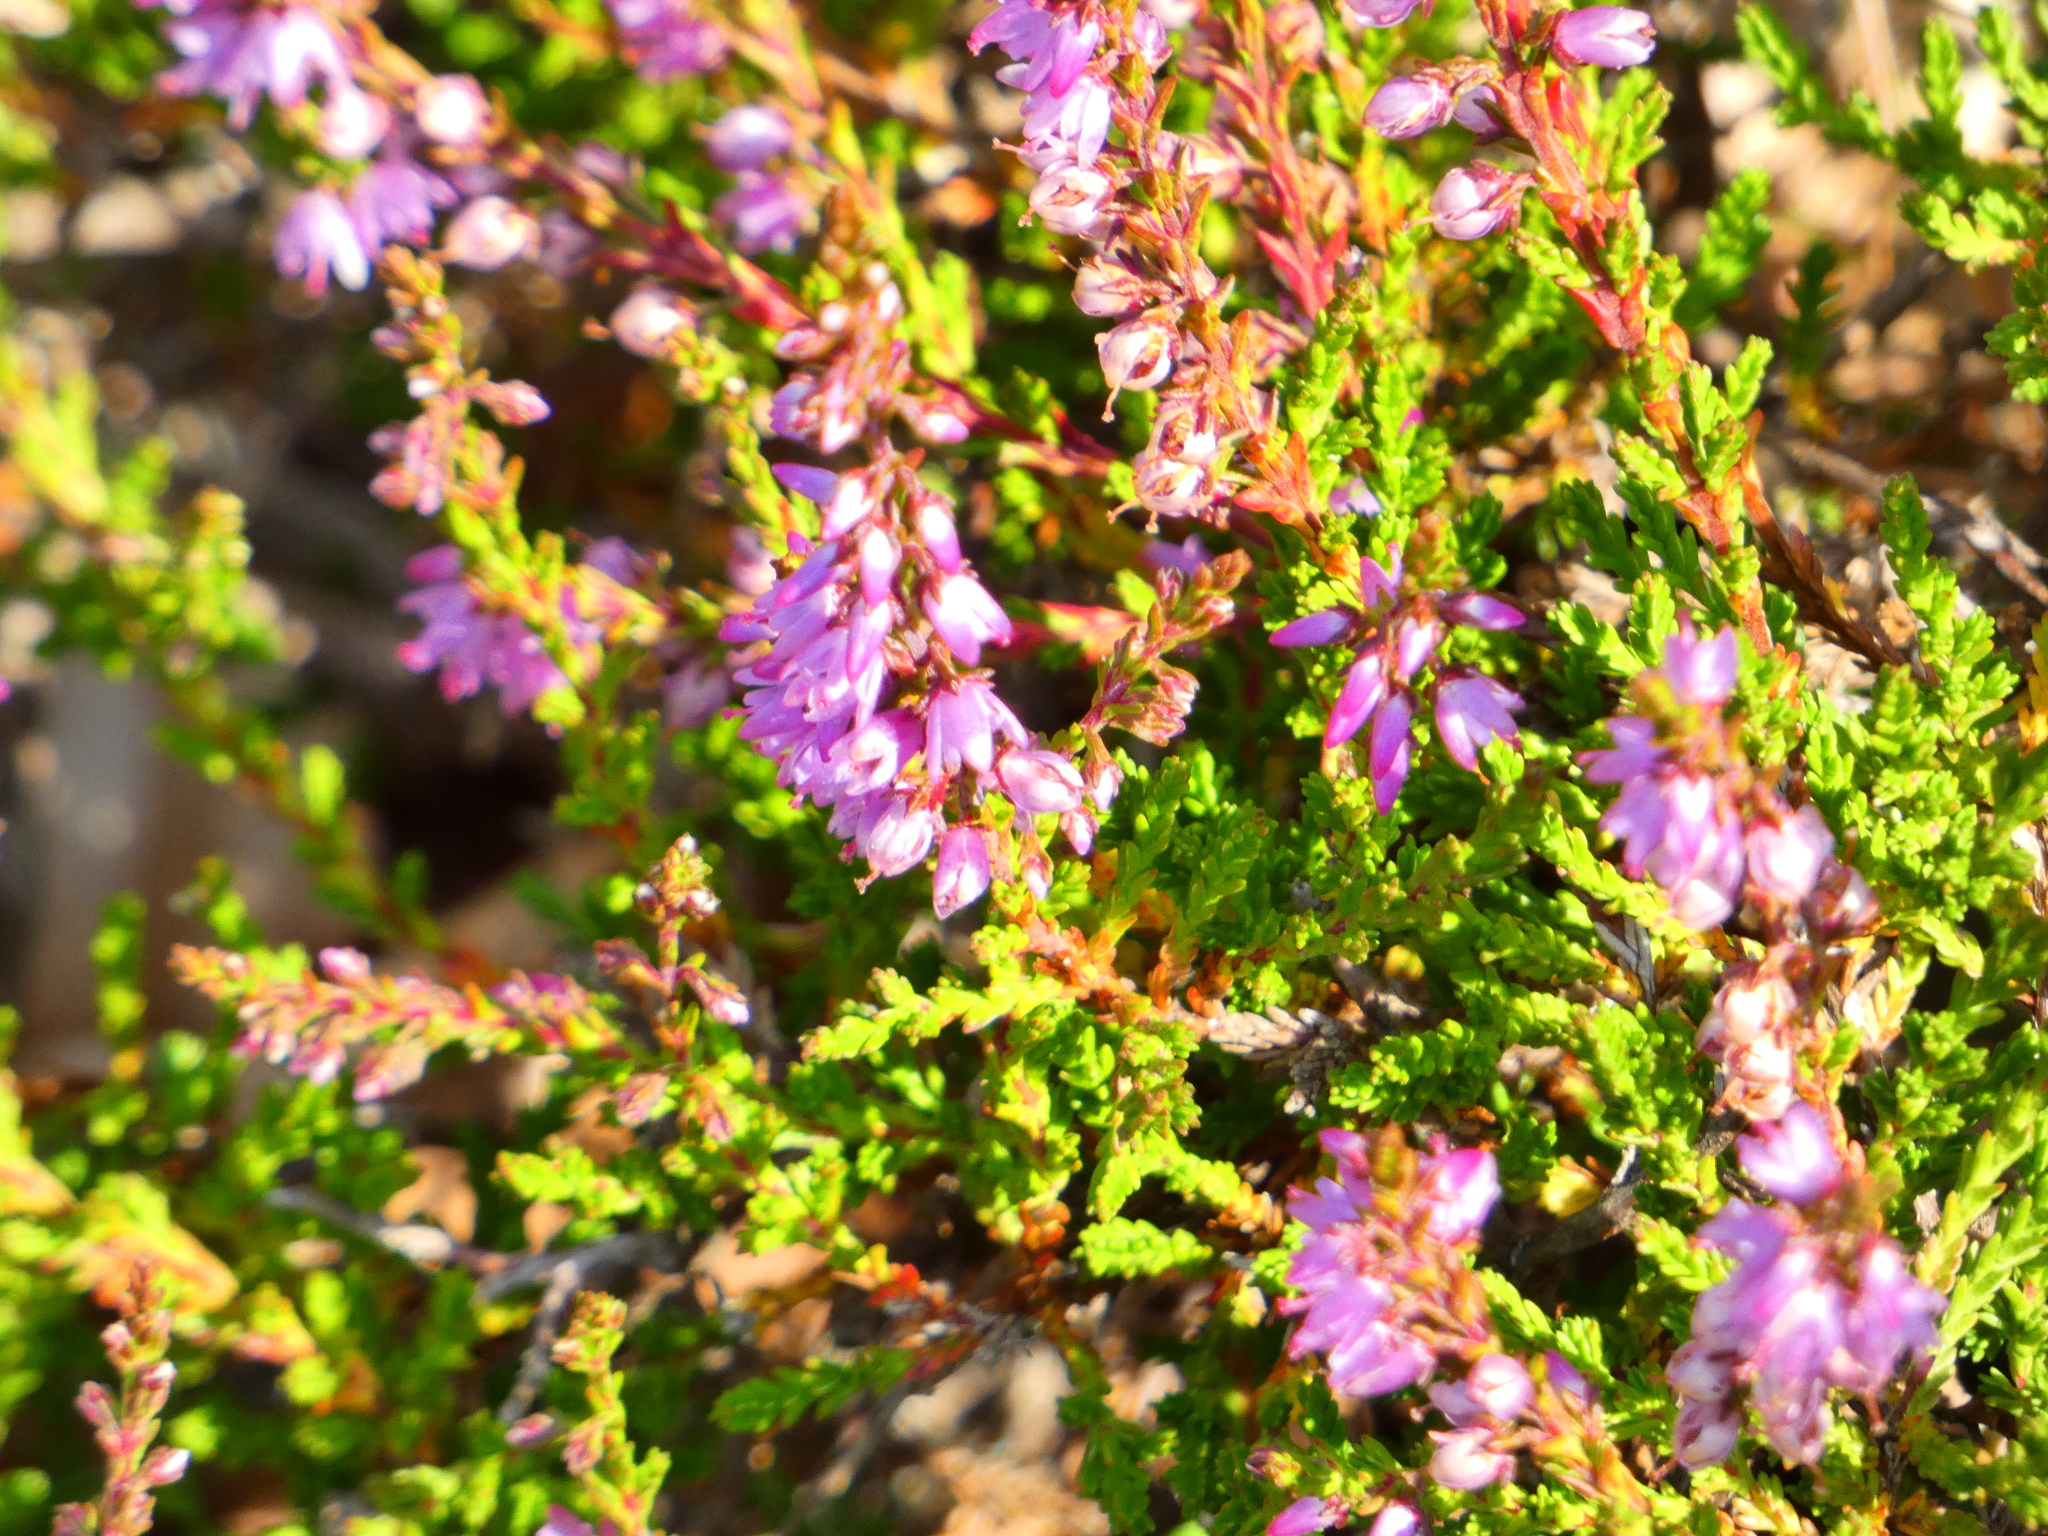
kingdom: Plantae
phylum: Tracheophyta
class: Magnoliopsida
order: Ericales
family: Ericaceae
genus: Calluna
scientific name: Calluna vulgaris
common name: Heather
